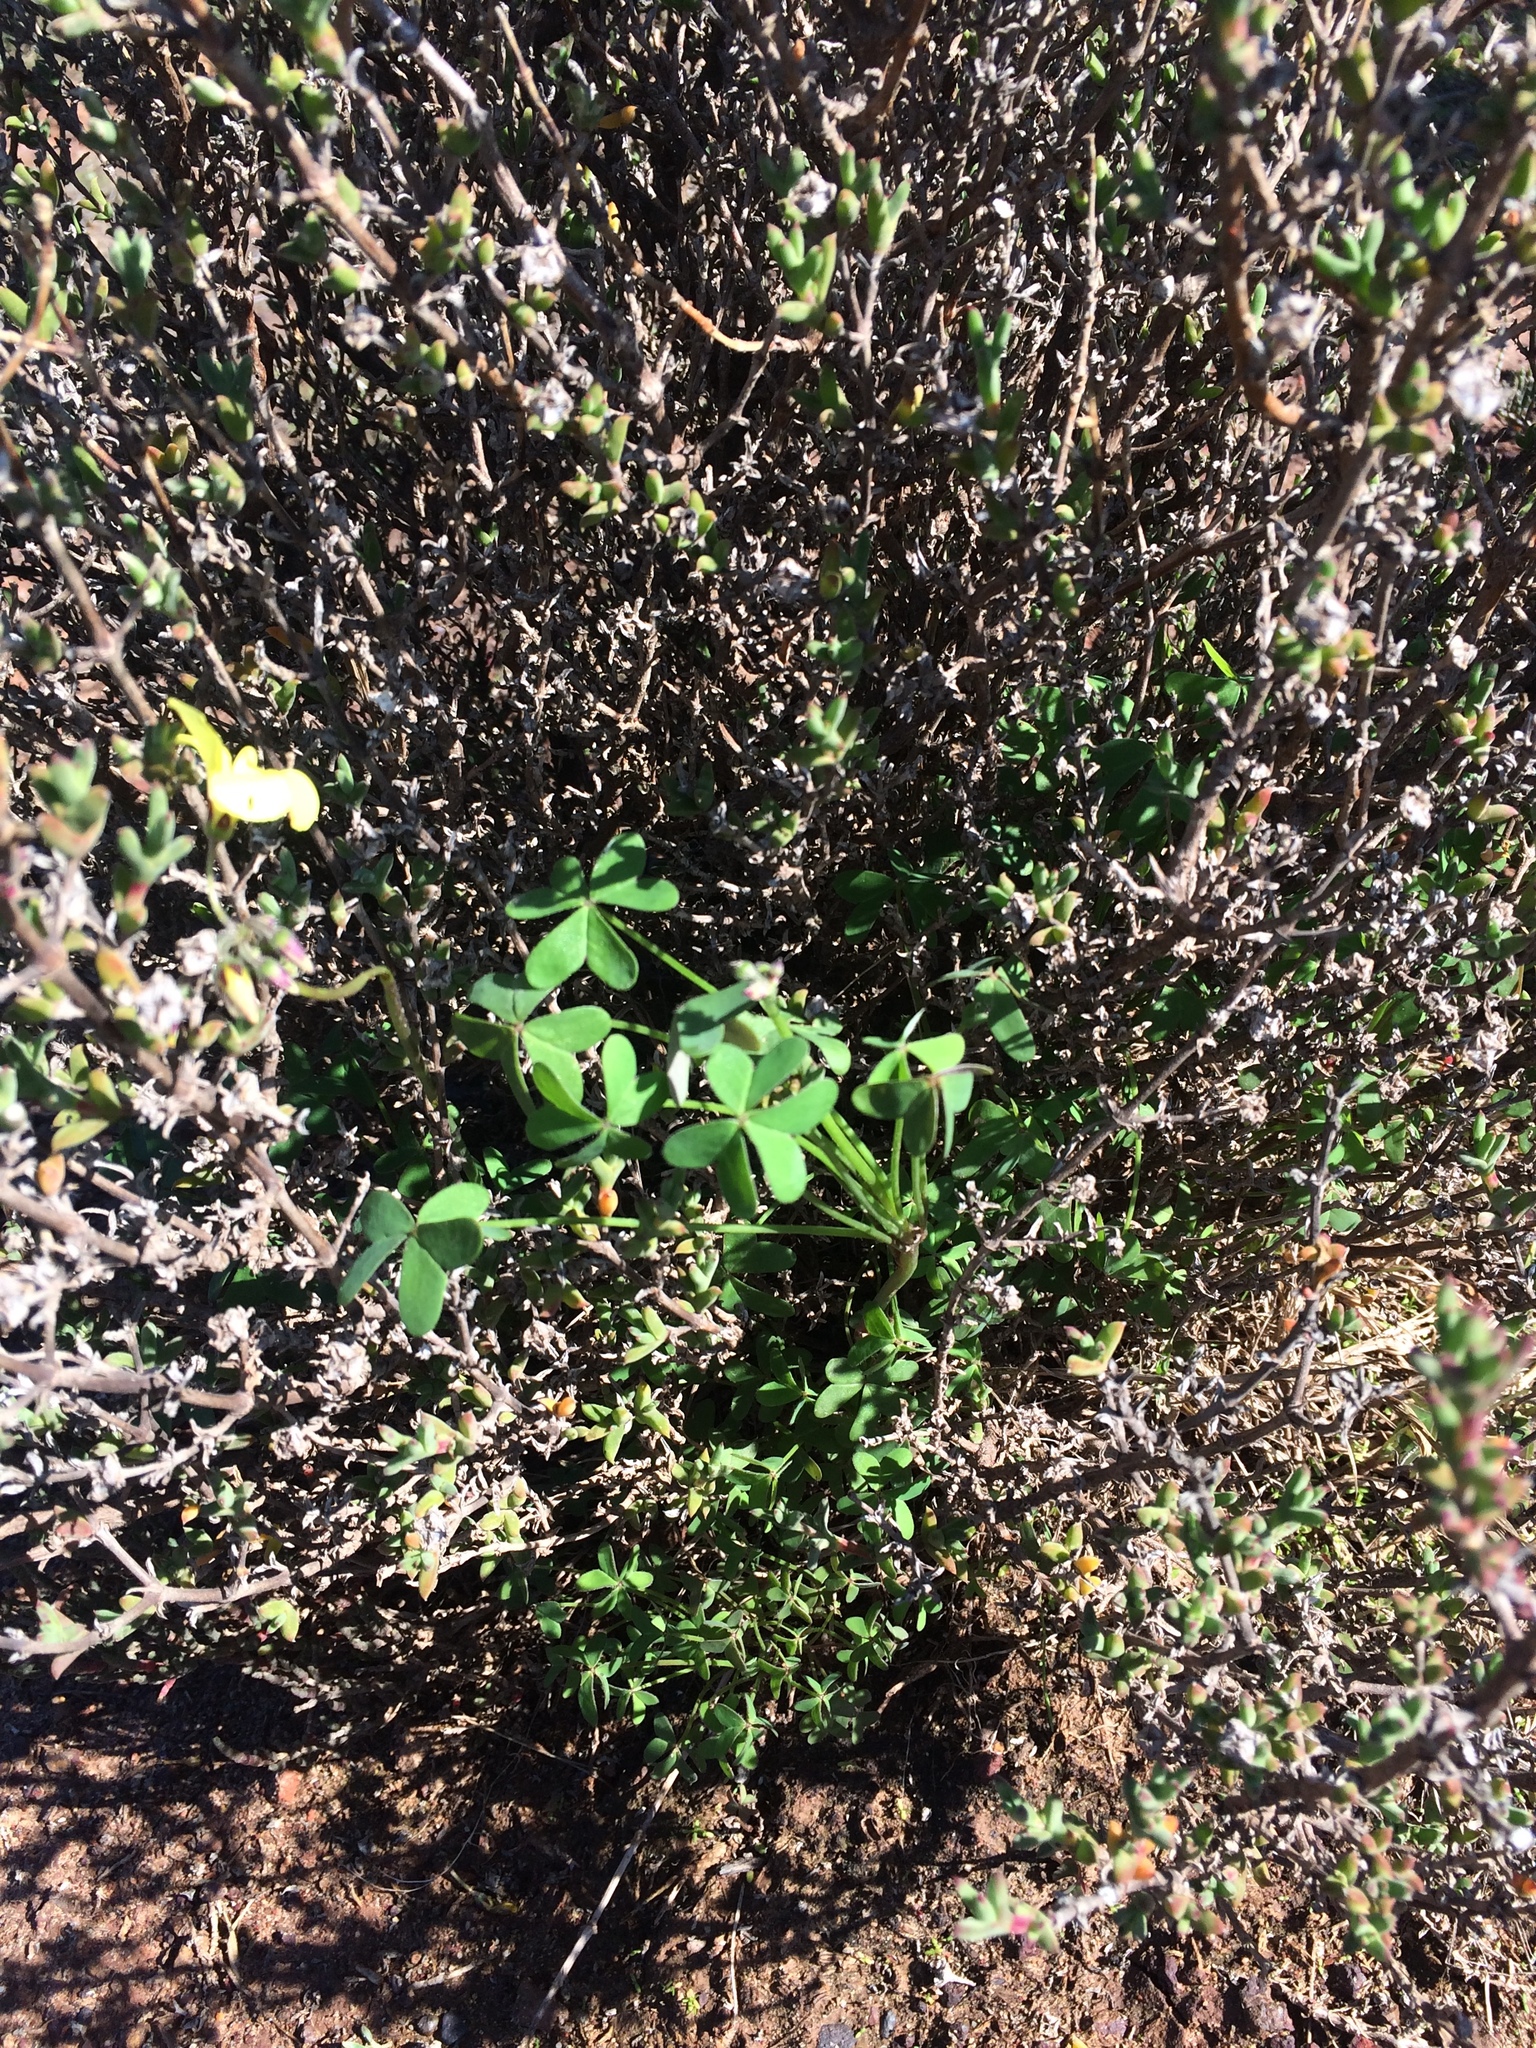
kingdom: Plantae
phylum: Tracheophyta
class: Magnoliopsida
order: Oxalidales
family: Oxalidaceae
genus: Oxalis
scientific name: Oxalis pes-caprae
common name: Bermuda-buttercup
